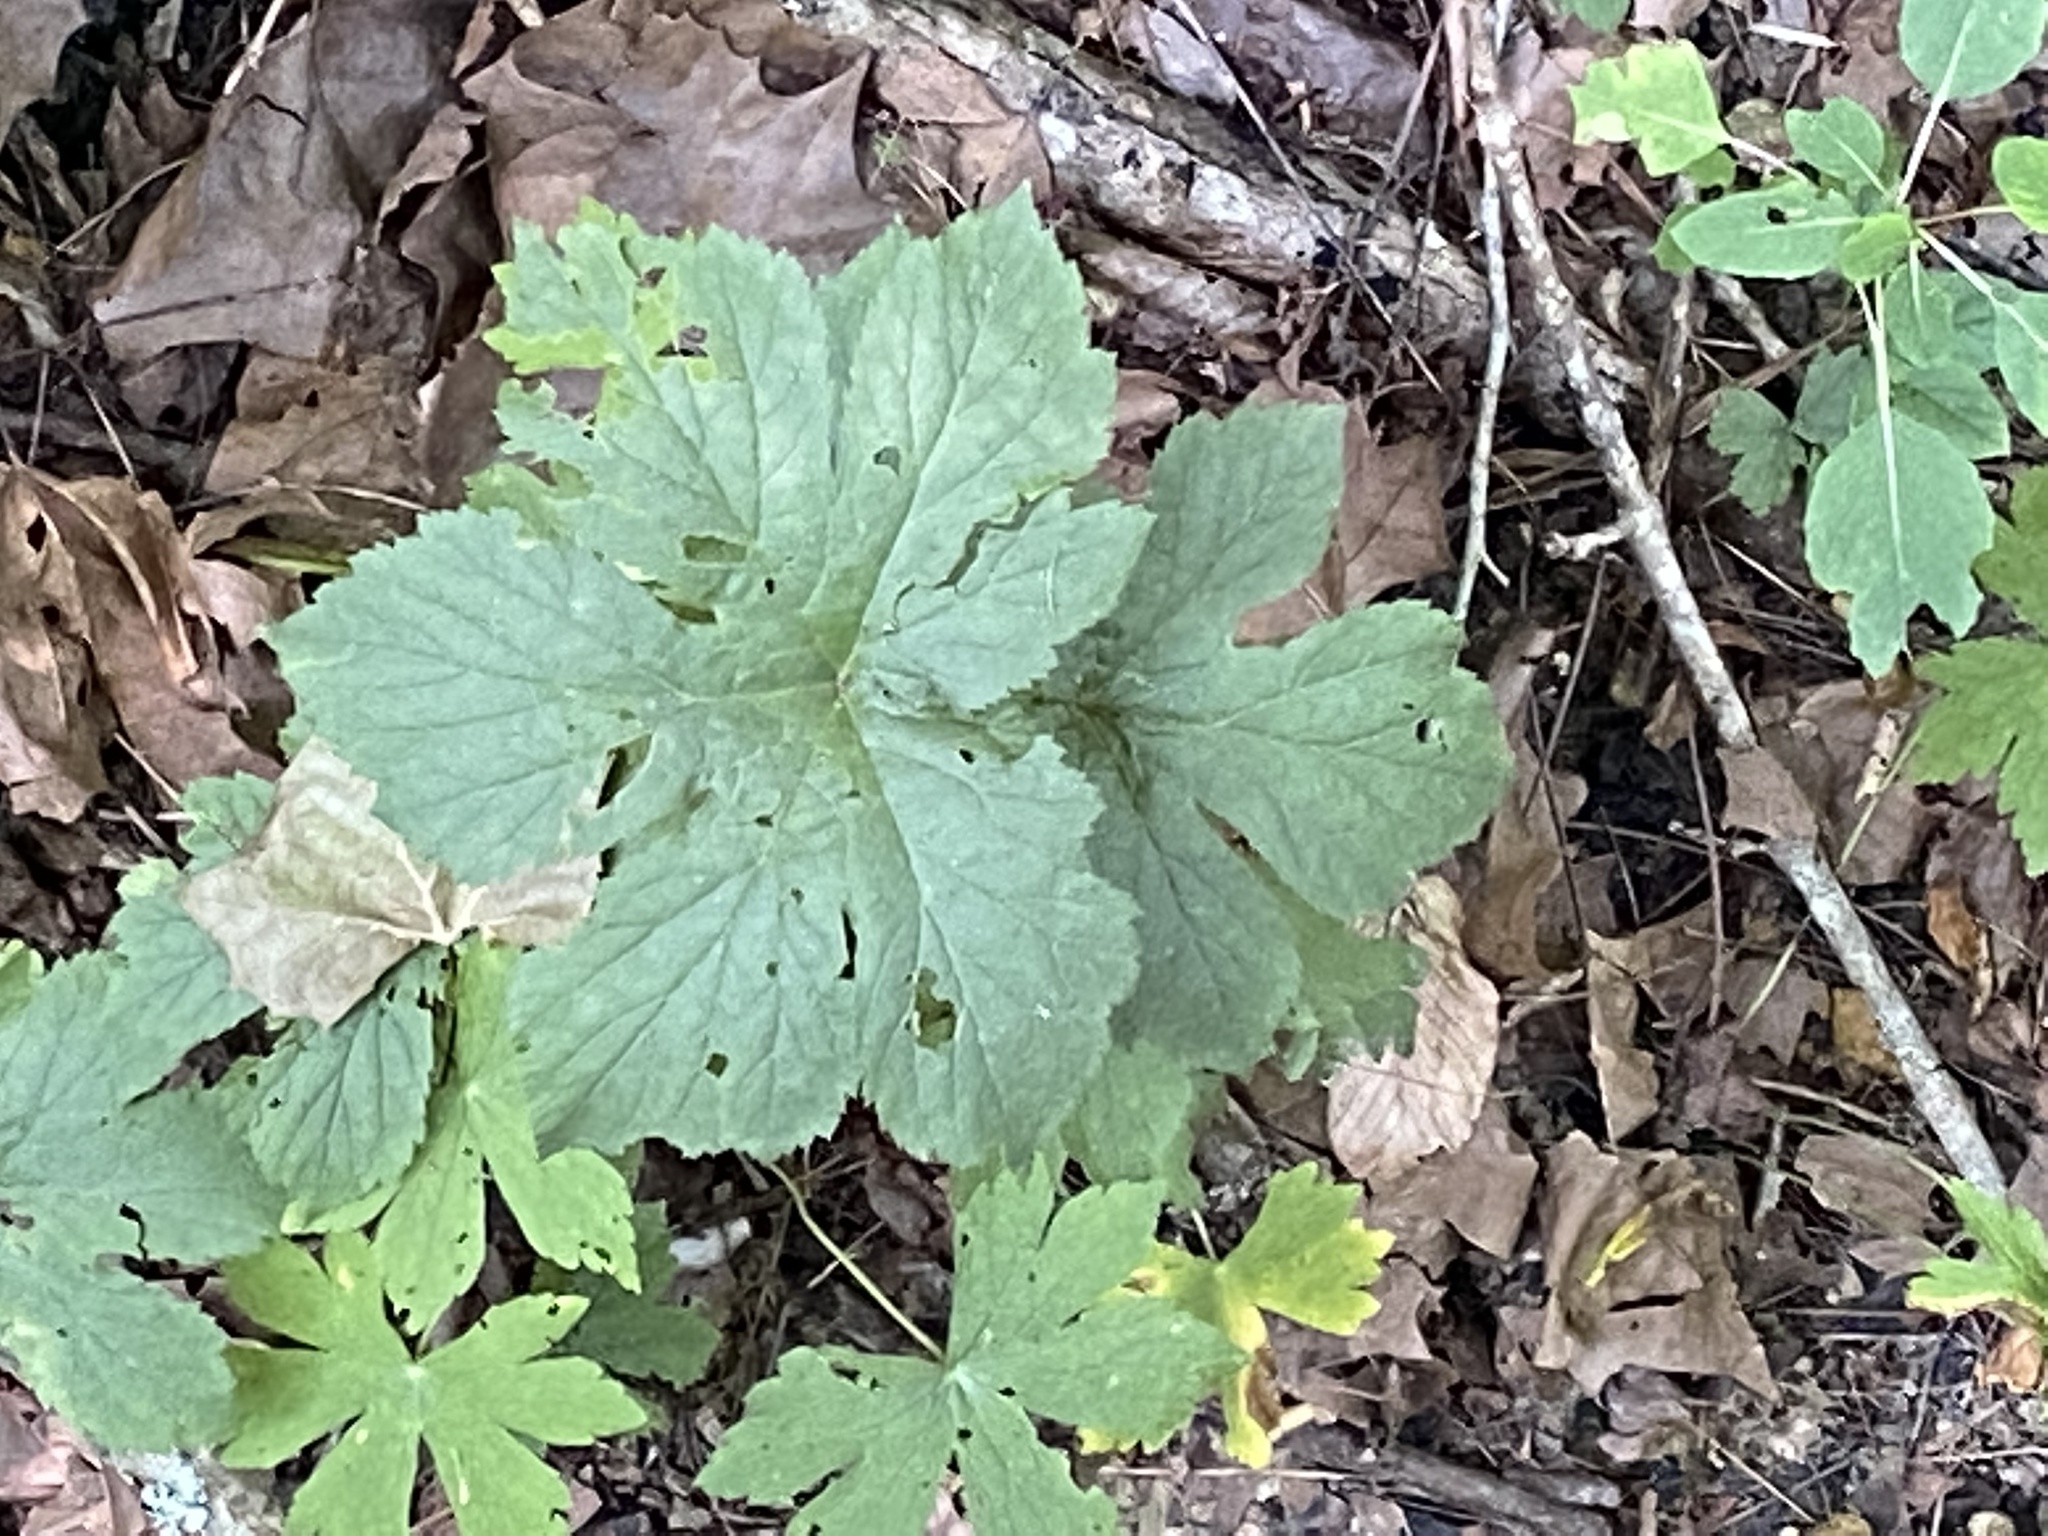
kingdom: Plantae
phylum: Tracheophyta
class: Magnoliopsida
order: Ranunculales
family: Ranunculaceae
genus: Hydrastis
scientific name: Hydrastis canadensis
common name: Goldenseal
